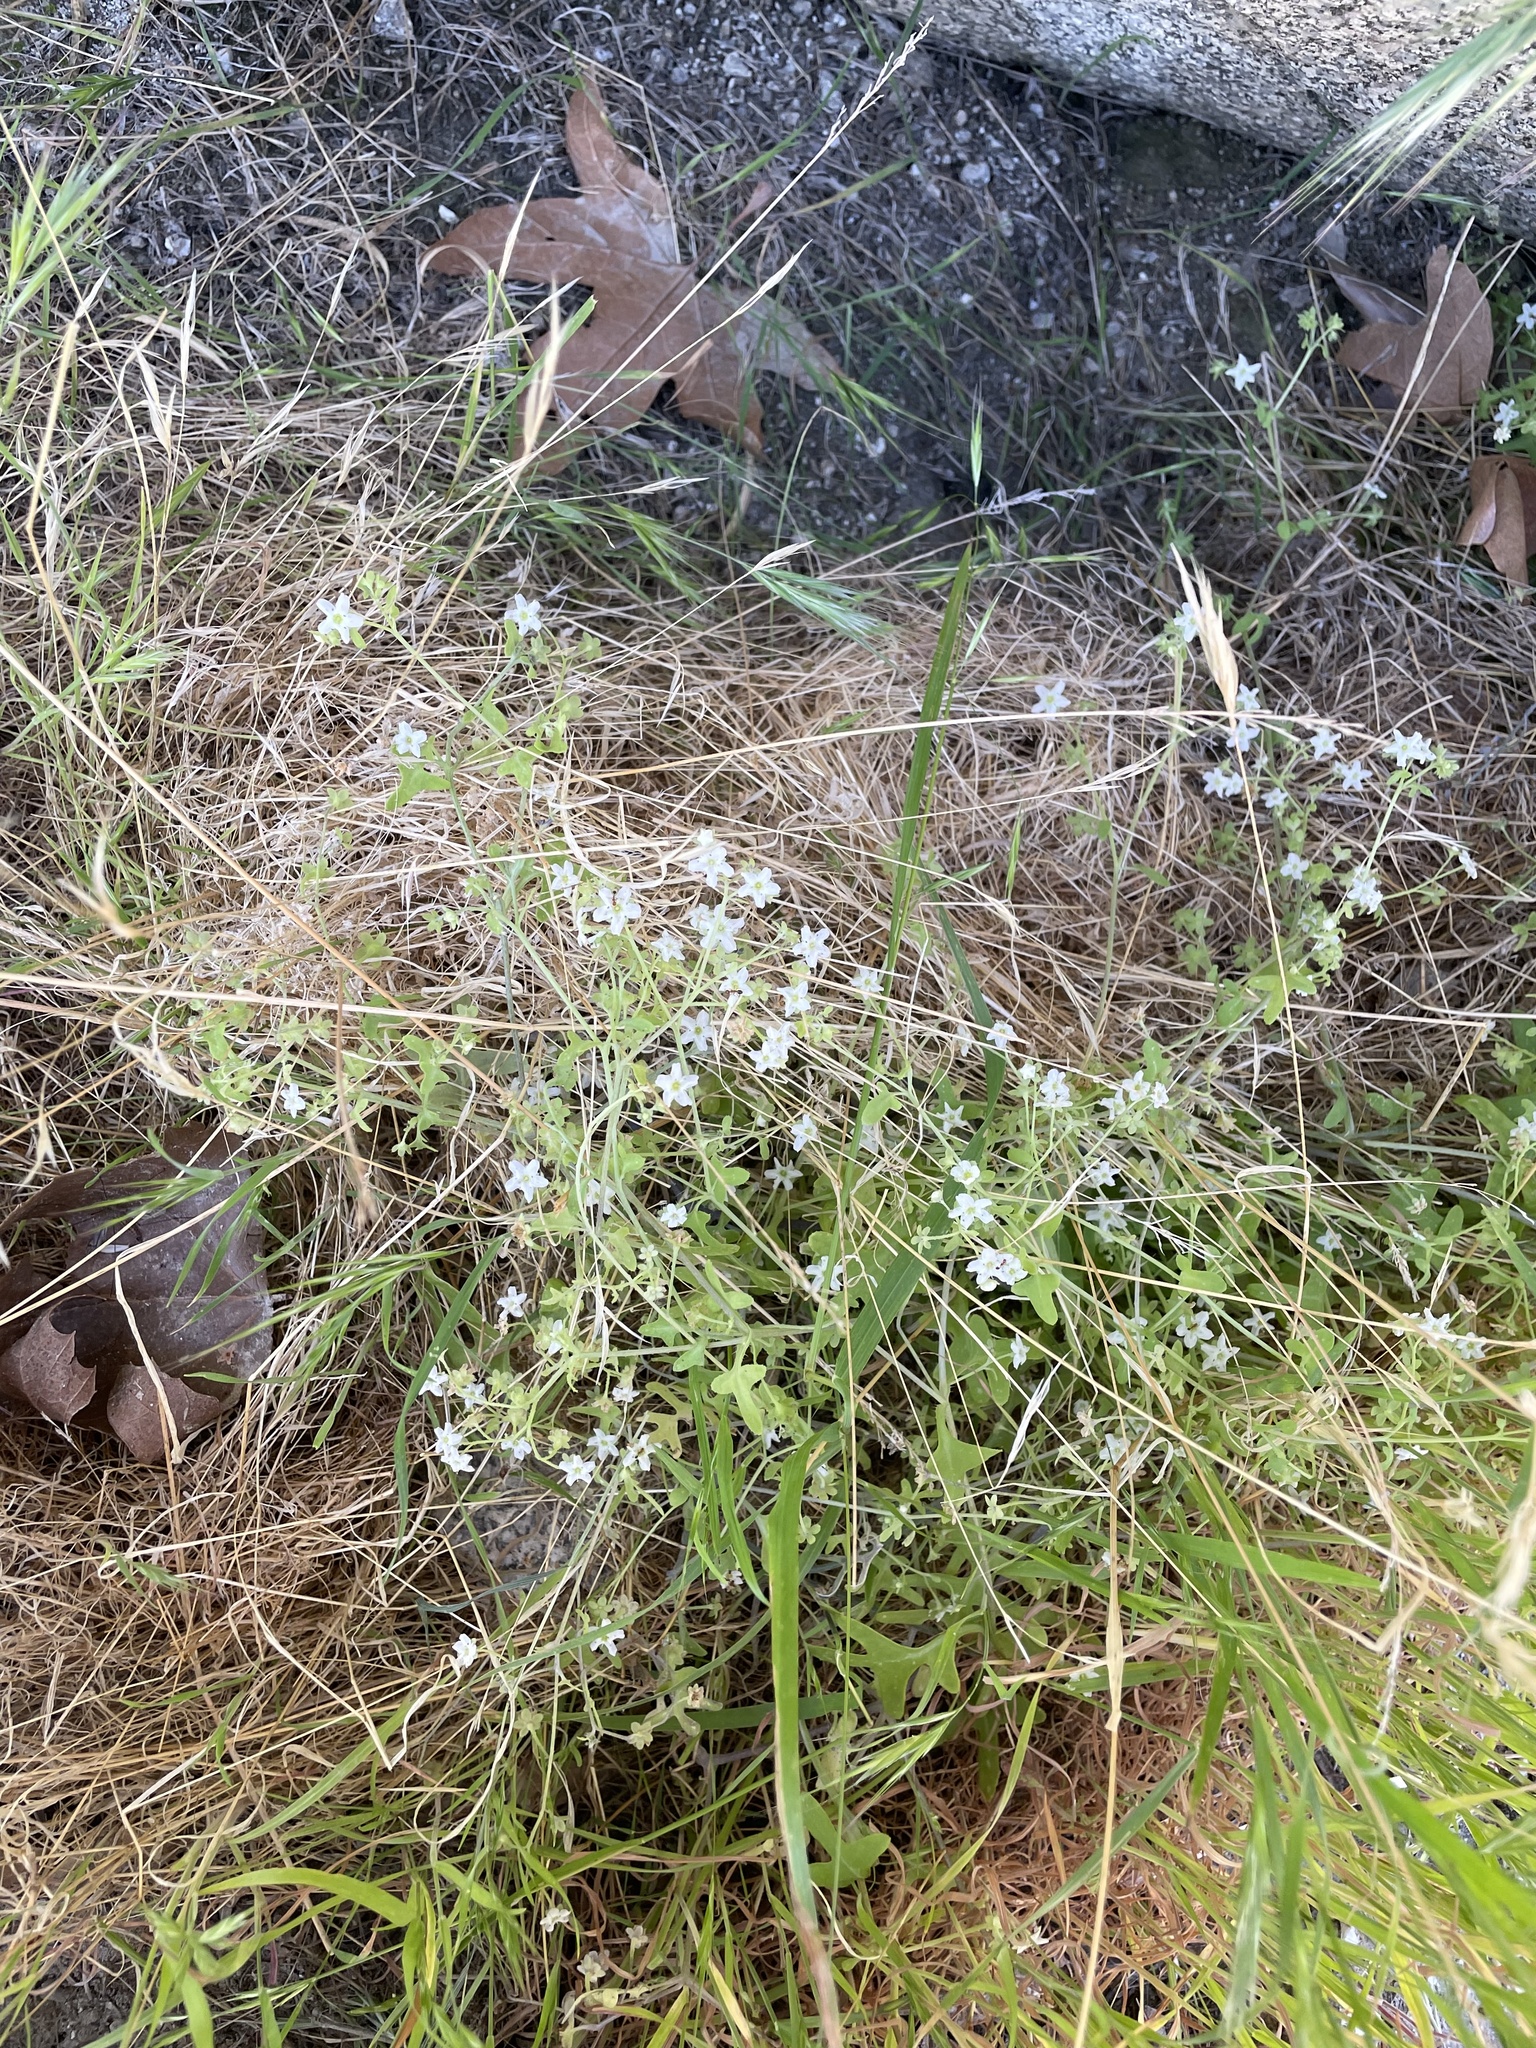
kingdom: Plantae
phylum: Tracheophyta
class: Magnoliopsida
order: Boraginales
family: Hydrophyllaceae
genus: Pholistoma
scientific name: Pholistoma membranaceum
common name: White fiesta-flower
